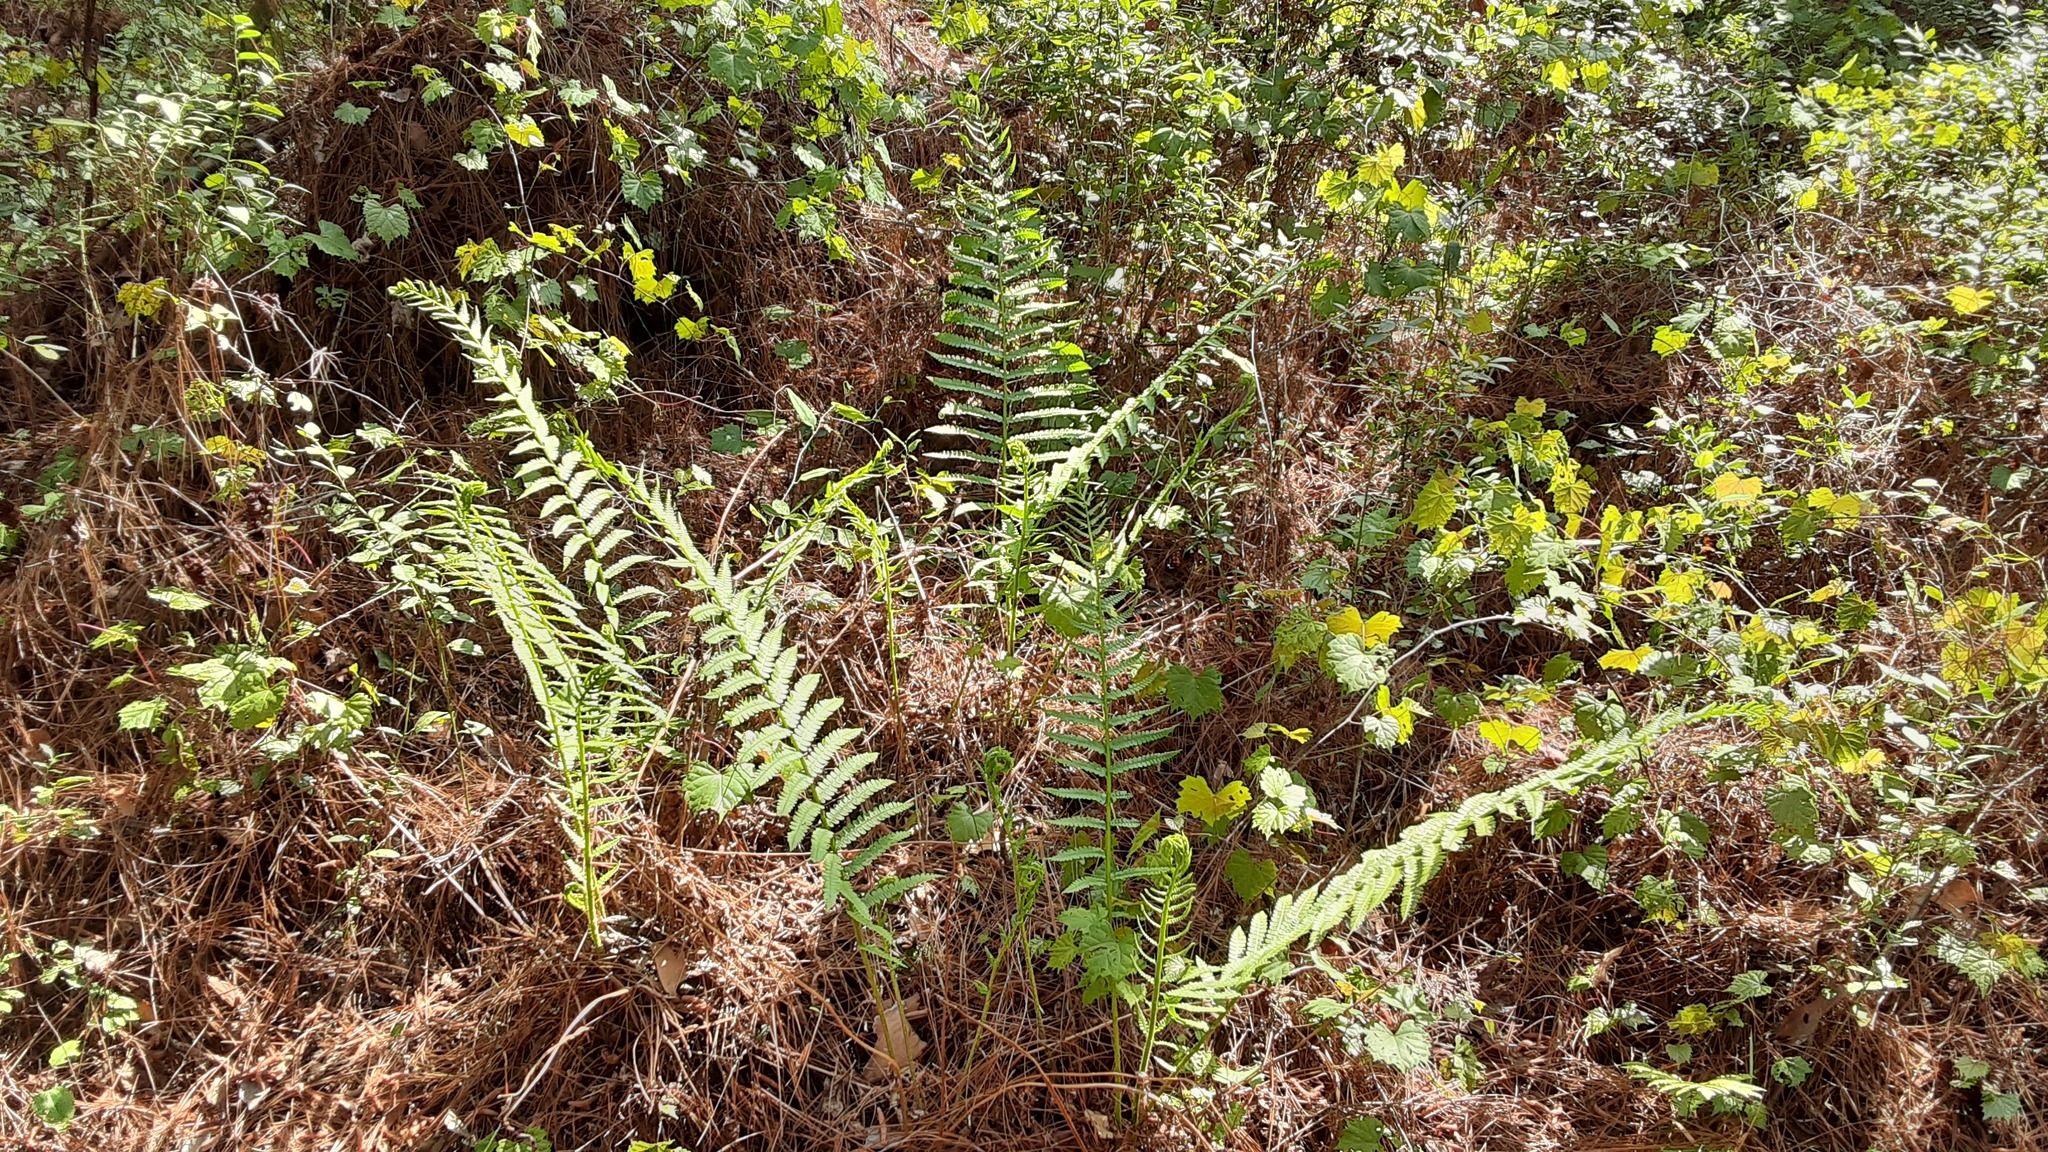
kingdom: Plantae
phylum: Tracheophyta
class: Polypodiopsida
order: Osmundales
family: Osmundaceae
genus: Osmundastrum
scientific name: Osmundastrum cinnamomeum
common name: Cinnamon fern
